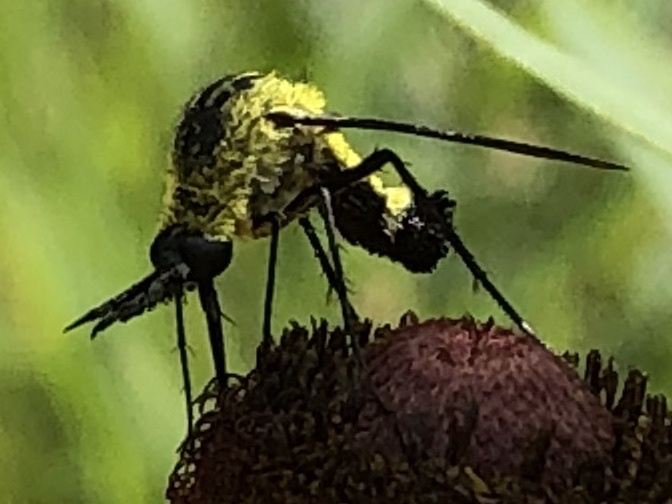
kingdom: Animalia
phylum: Arthropoda
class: Insecta
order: Diptera
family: Bombyliidae
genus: Lepidophora
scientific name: Lepidophora lutea
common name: Hunchback bee fly
